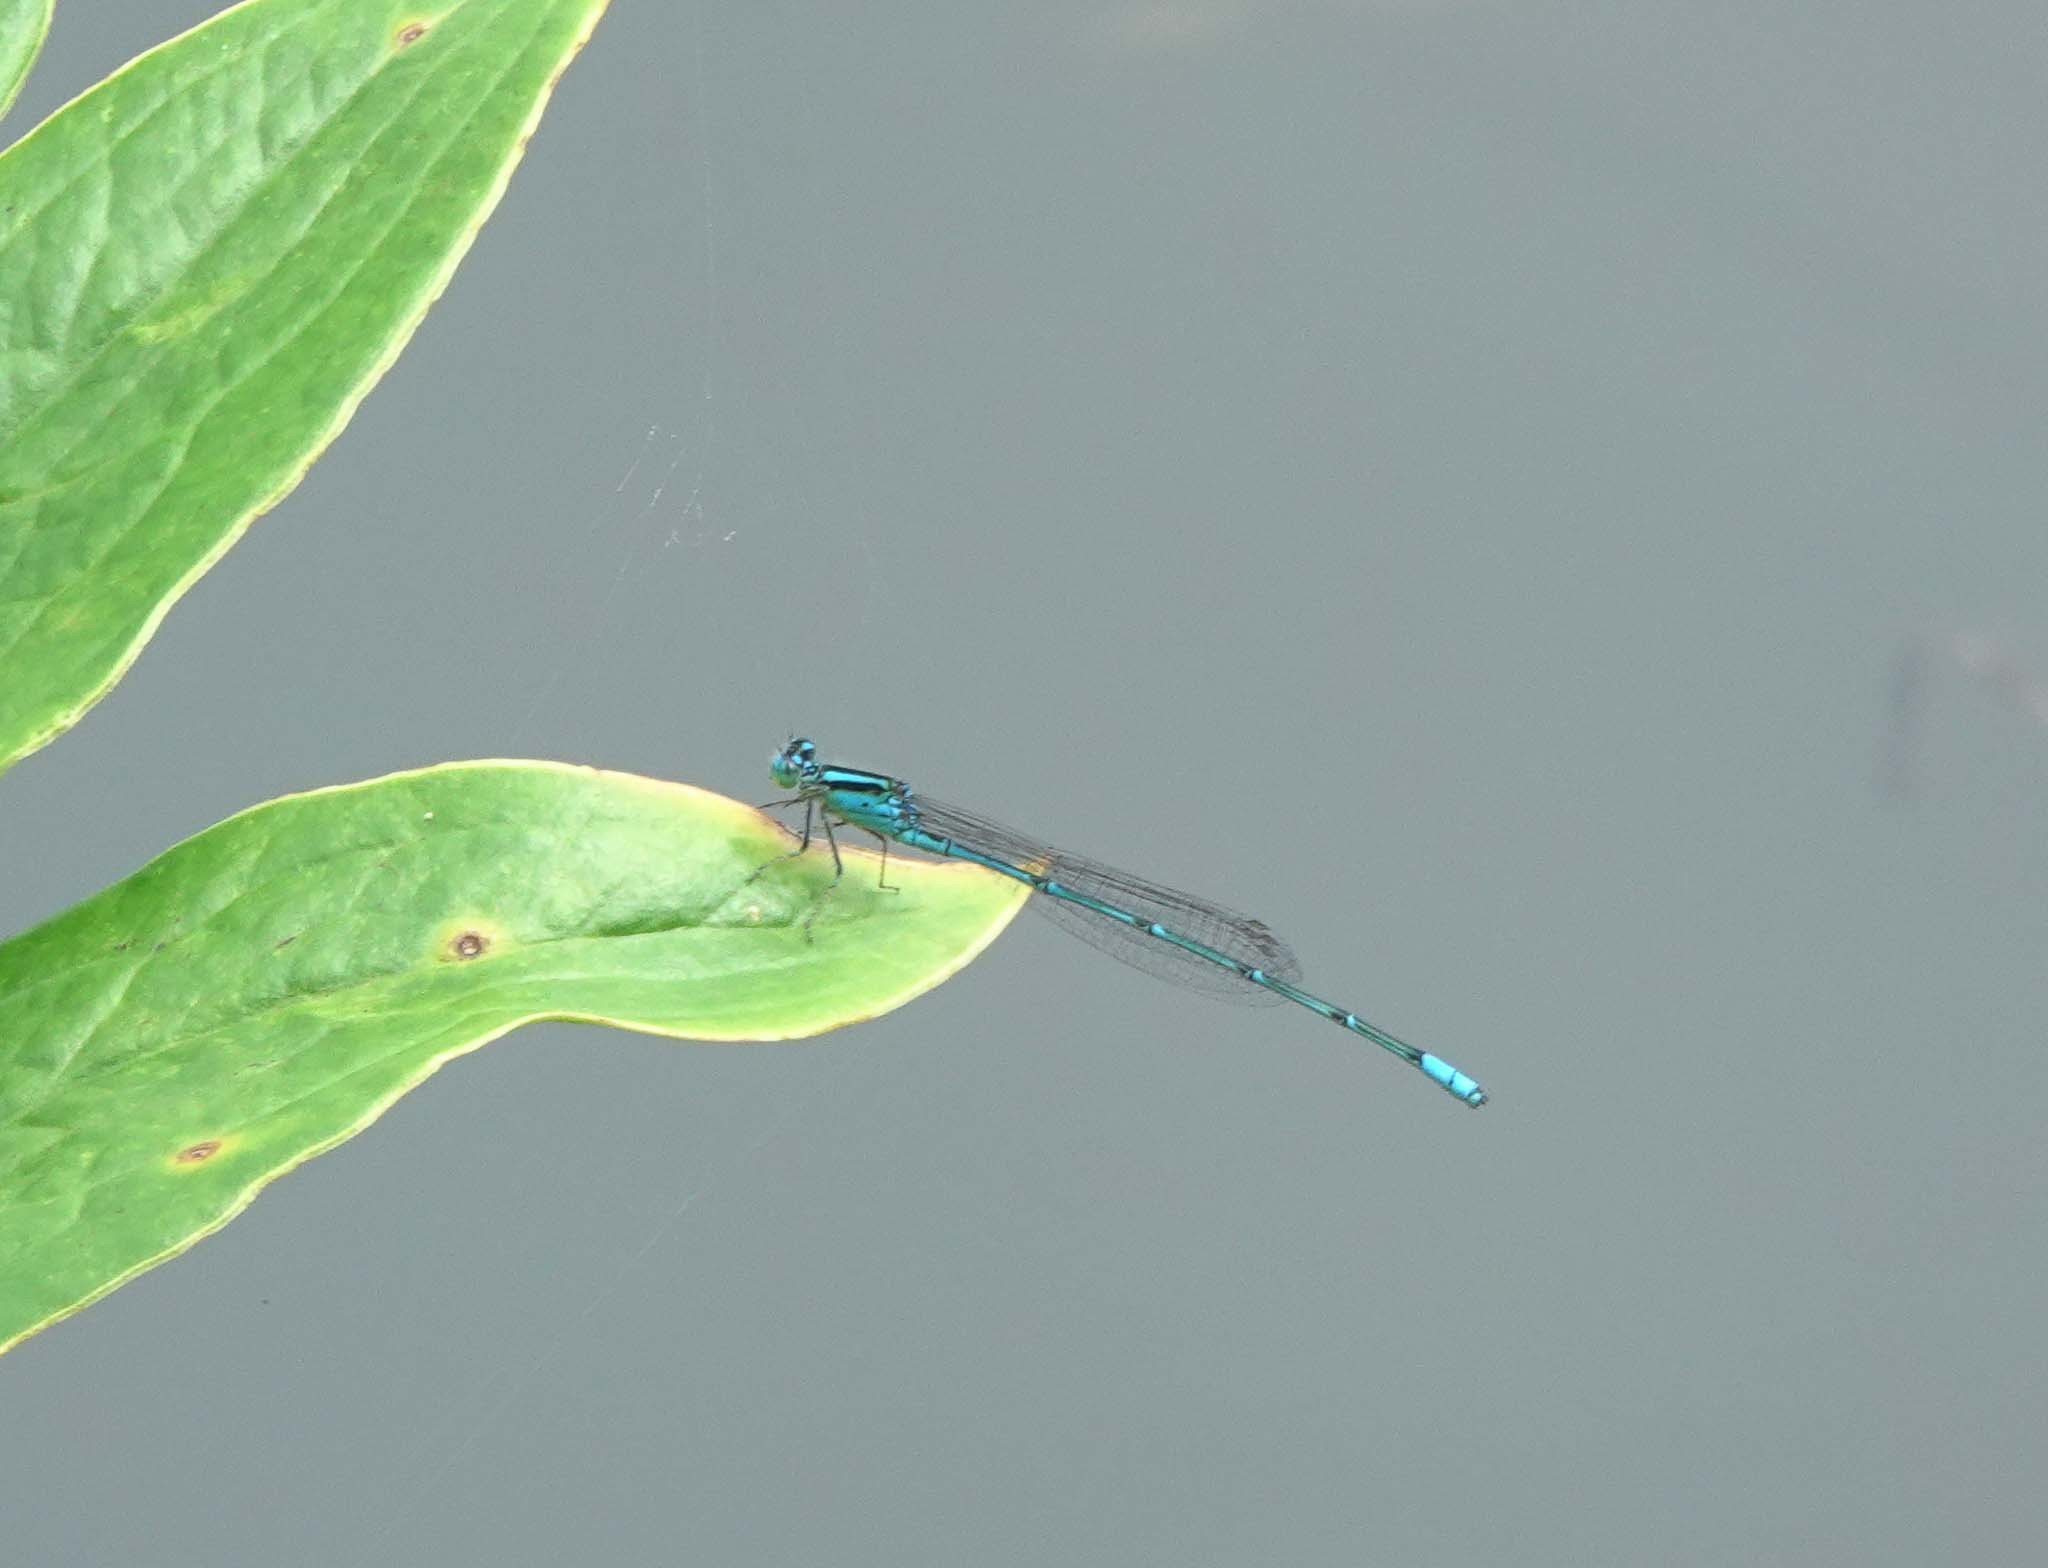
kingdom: Animalia
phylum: Arthropoda
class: Insecta
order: Odonata
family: Coenagrionidae
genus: Pseudagrion
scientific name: Pseudagrion australasiae
